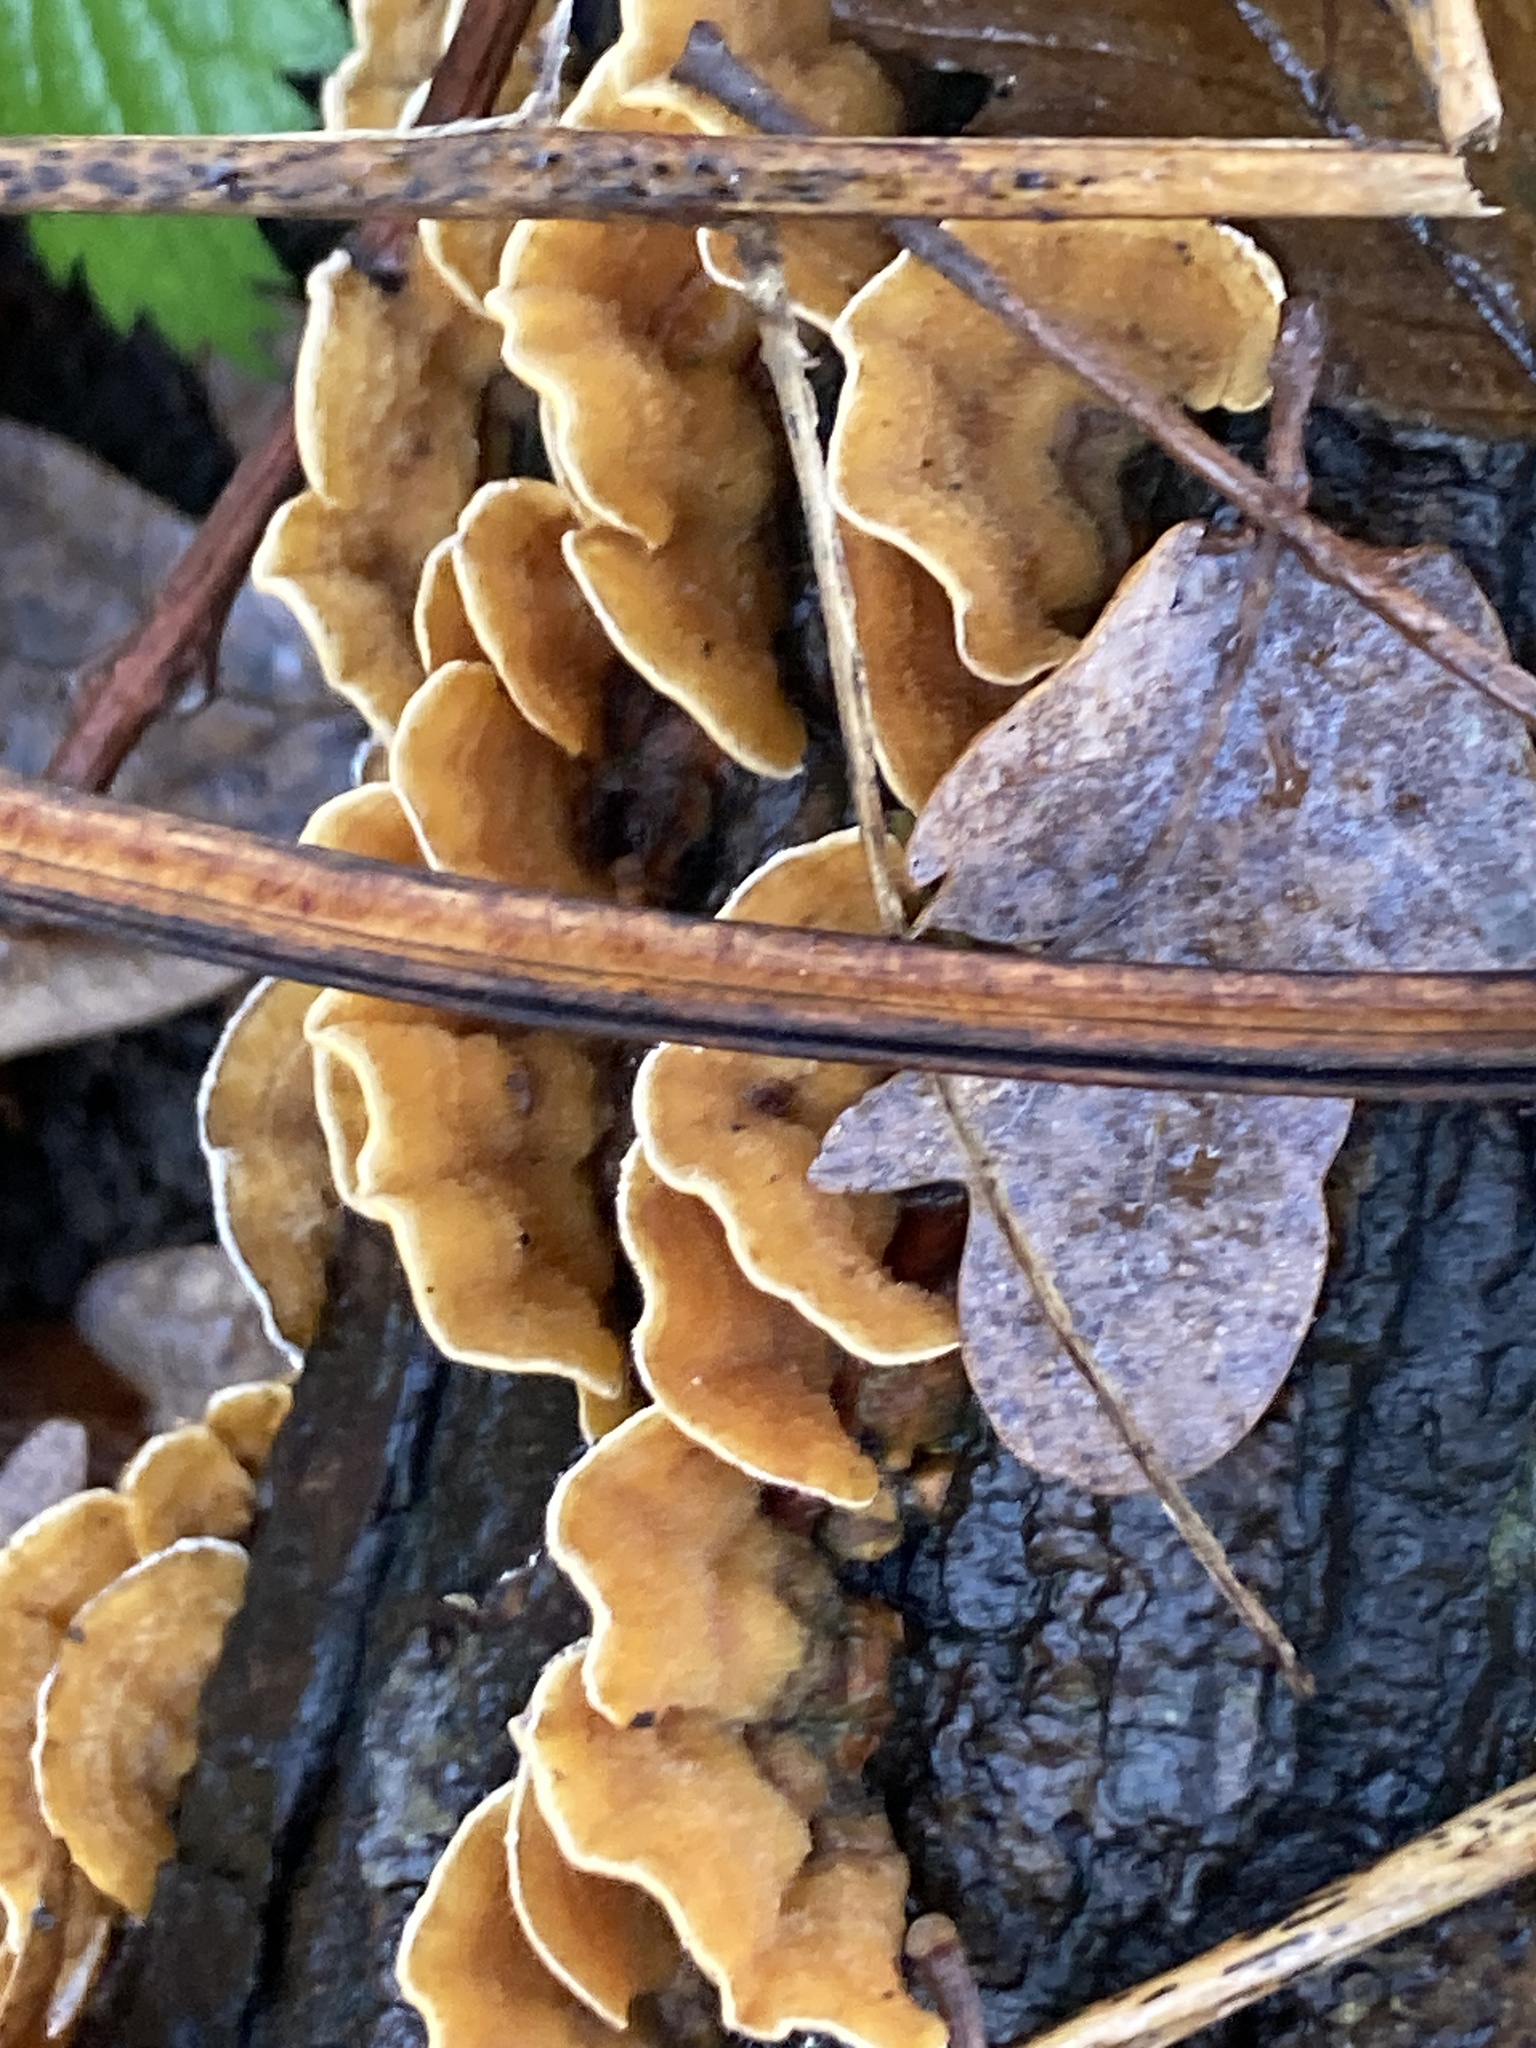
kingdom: Fungi
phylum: Basidiomycota
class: Agaricomycetes
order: Russulales
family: Stereaceae
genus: Stereum
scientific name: Stereum hirsutum
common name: Hairy curtain crust
